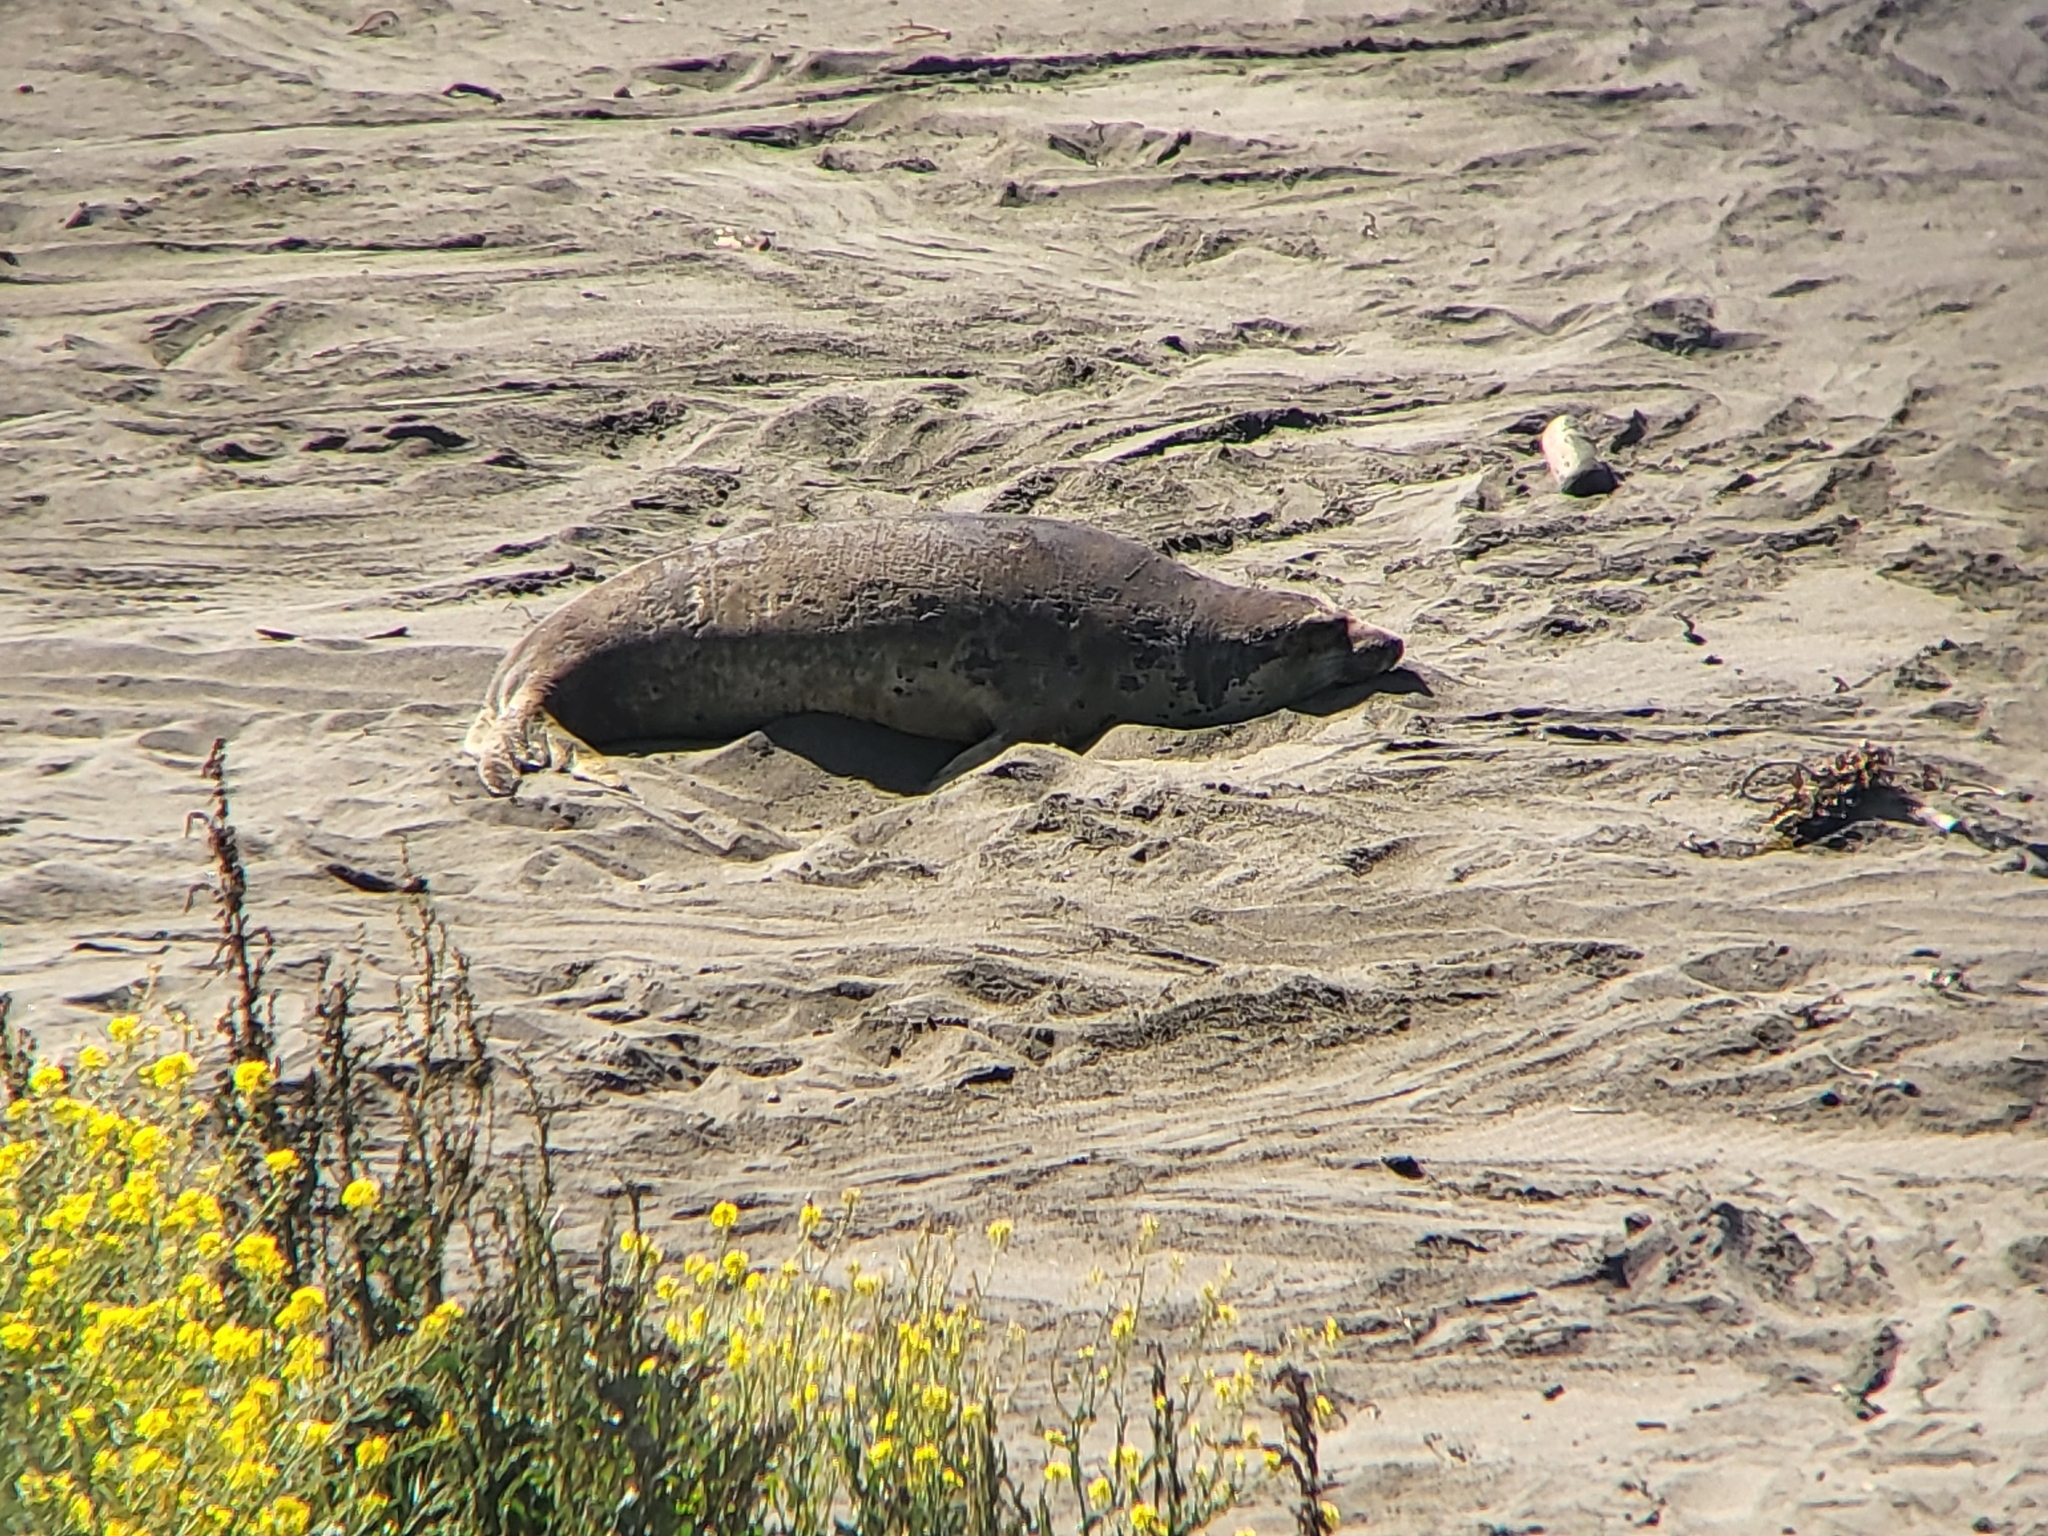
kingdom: Animalia
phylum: Chordata
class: Mammalia
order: Carnivora
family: Phocidae
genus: Mirounga
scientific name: Mirounga angustirostris
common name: Northern elephant seal
